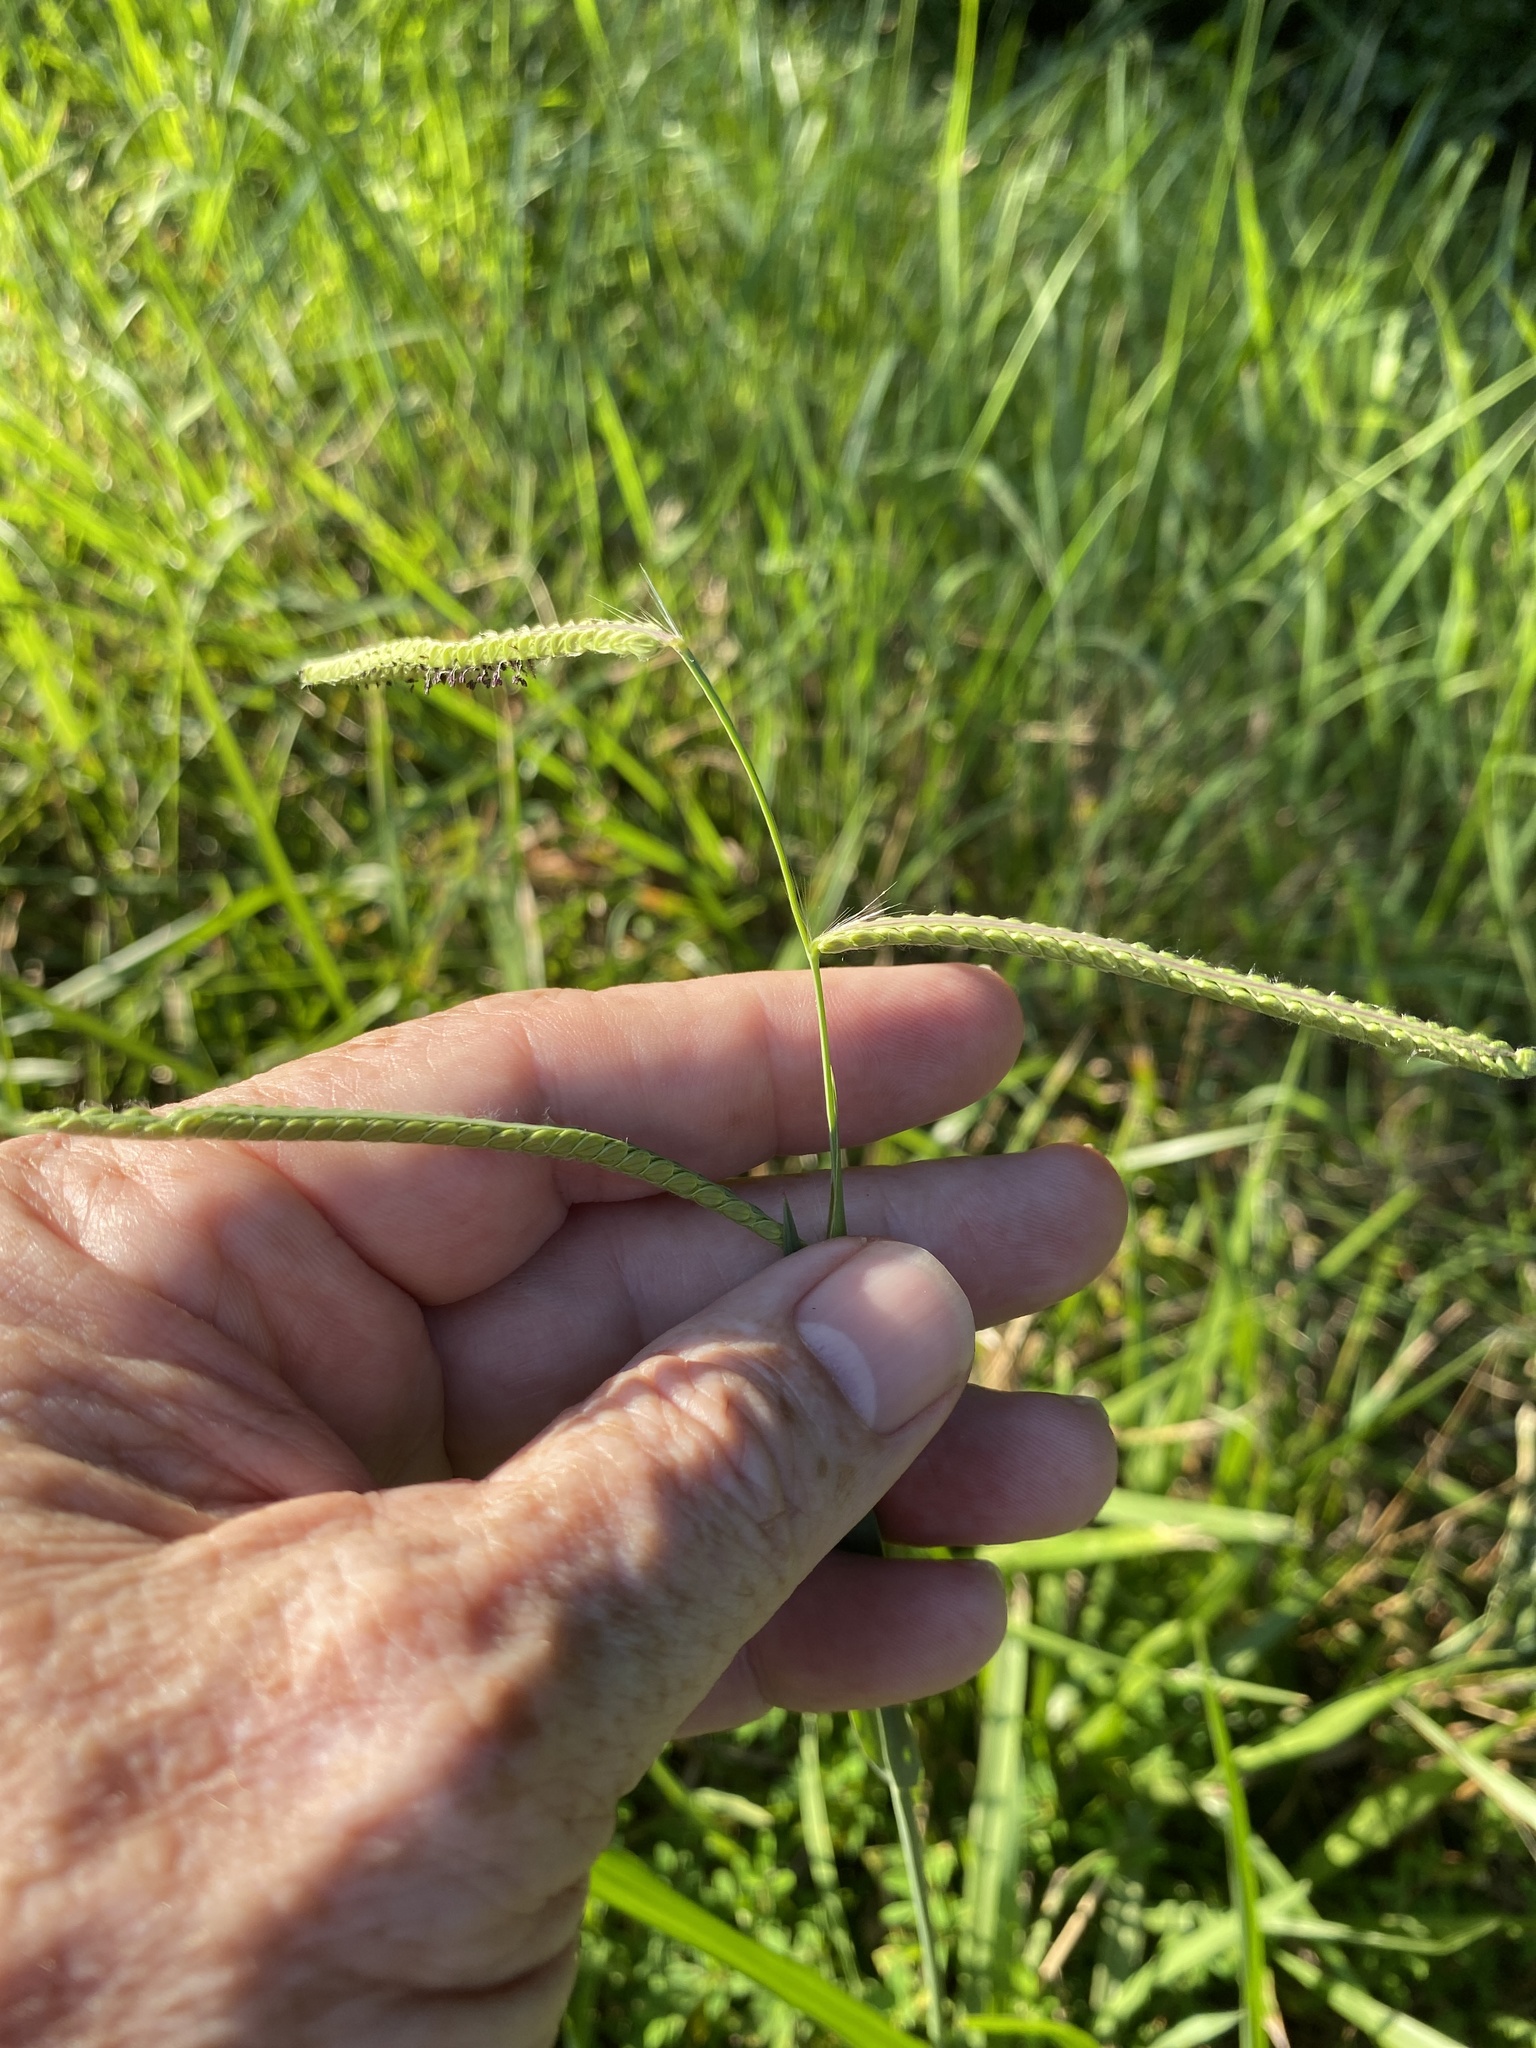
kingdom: Plantae
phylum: Tracheophyta
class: Liliopsida
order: Poales
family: Poaceae
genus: Paspalum
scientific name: Paspalum dilatatum
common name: Dallisgrass
